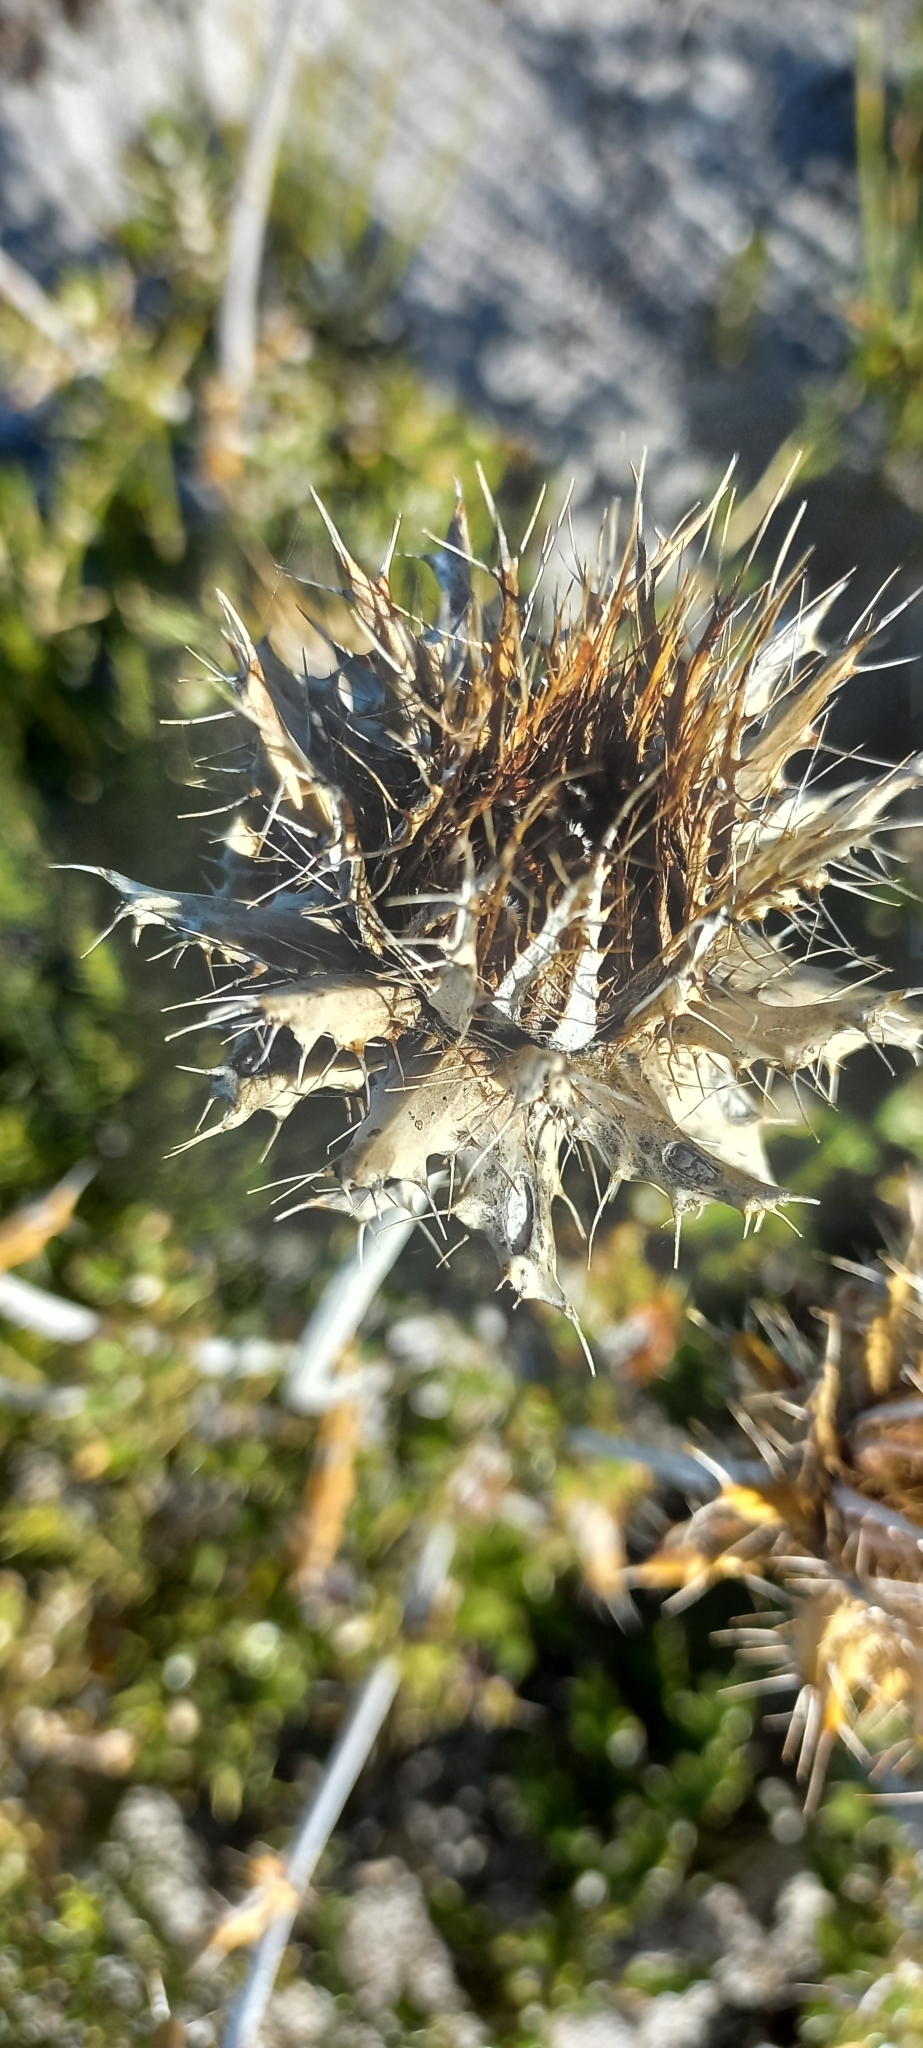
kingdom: Plantae
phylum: Tracheophyta
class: Magnoliopsida
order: Asterales
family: Asteraceae
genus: Berkheya
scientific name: Berkheya barbata
